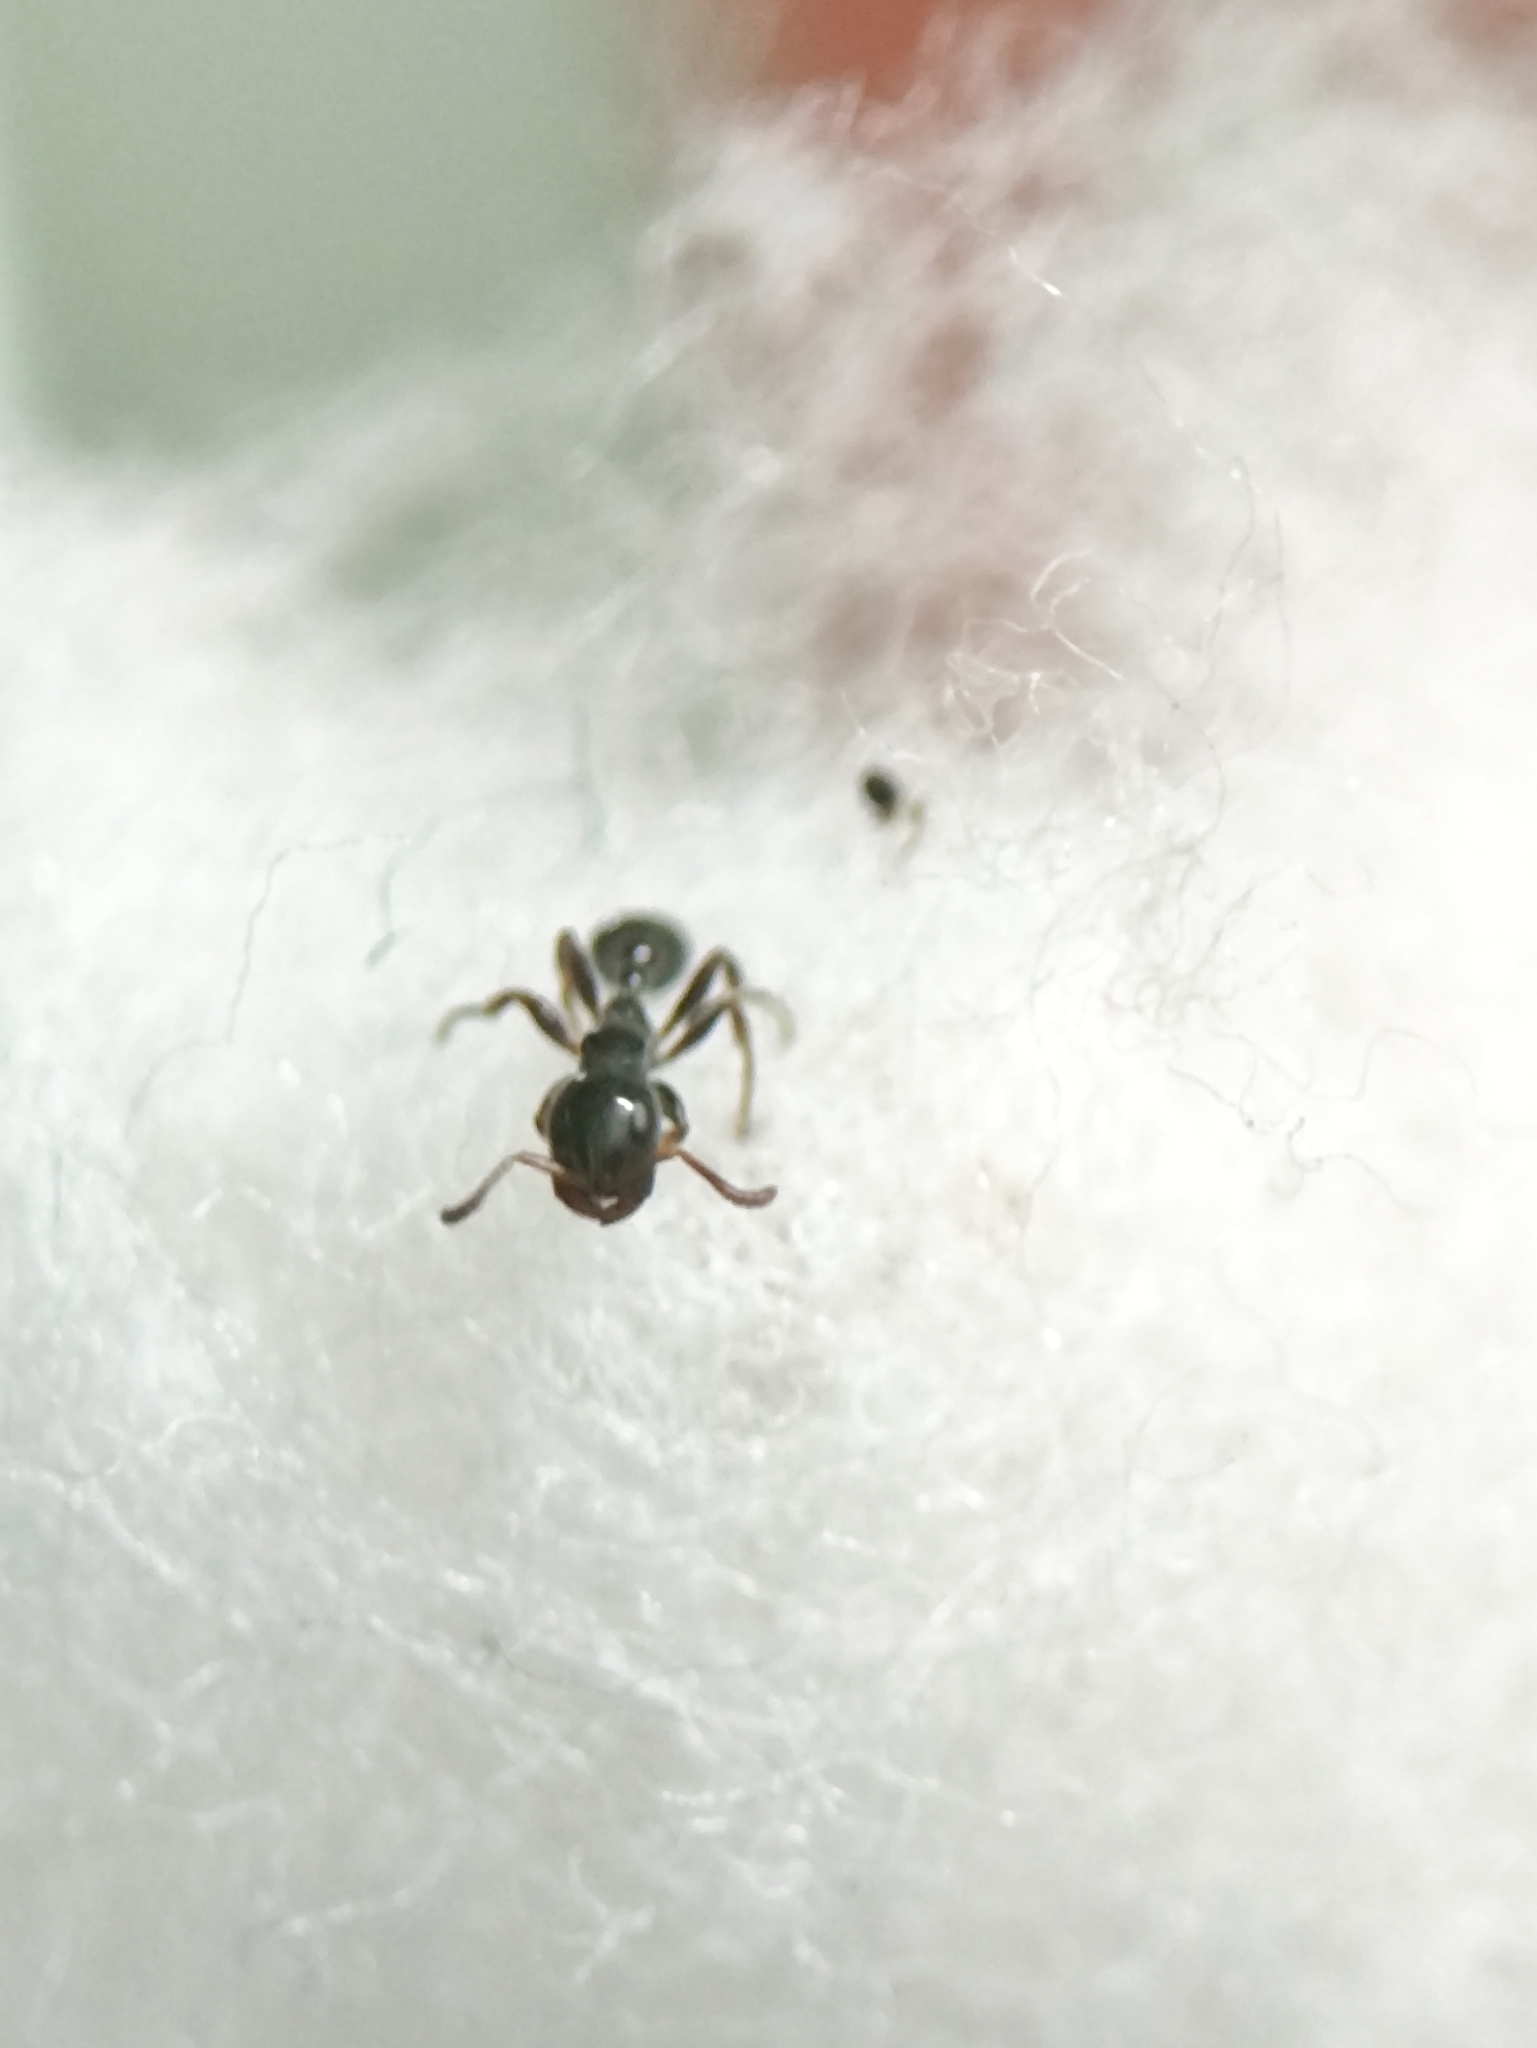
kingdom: Animalia
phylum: Arthropoda
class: Insecta
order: Hymenoptera
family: Formicidae
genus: Tetraponera
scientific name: Tetraponera aitkenii
